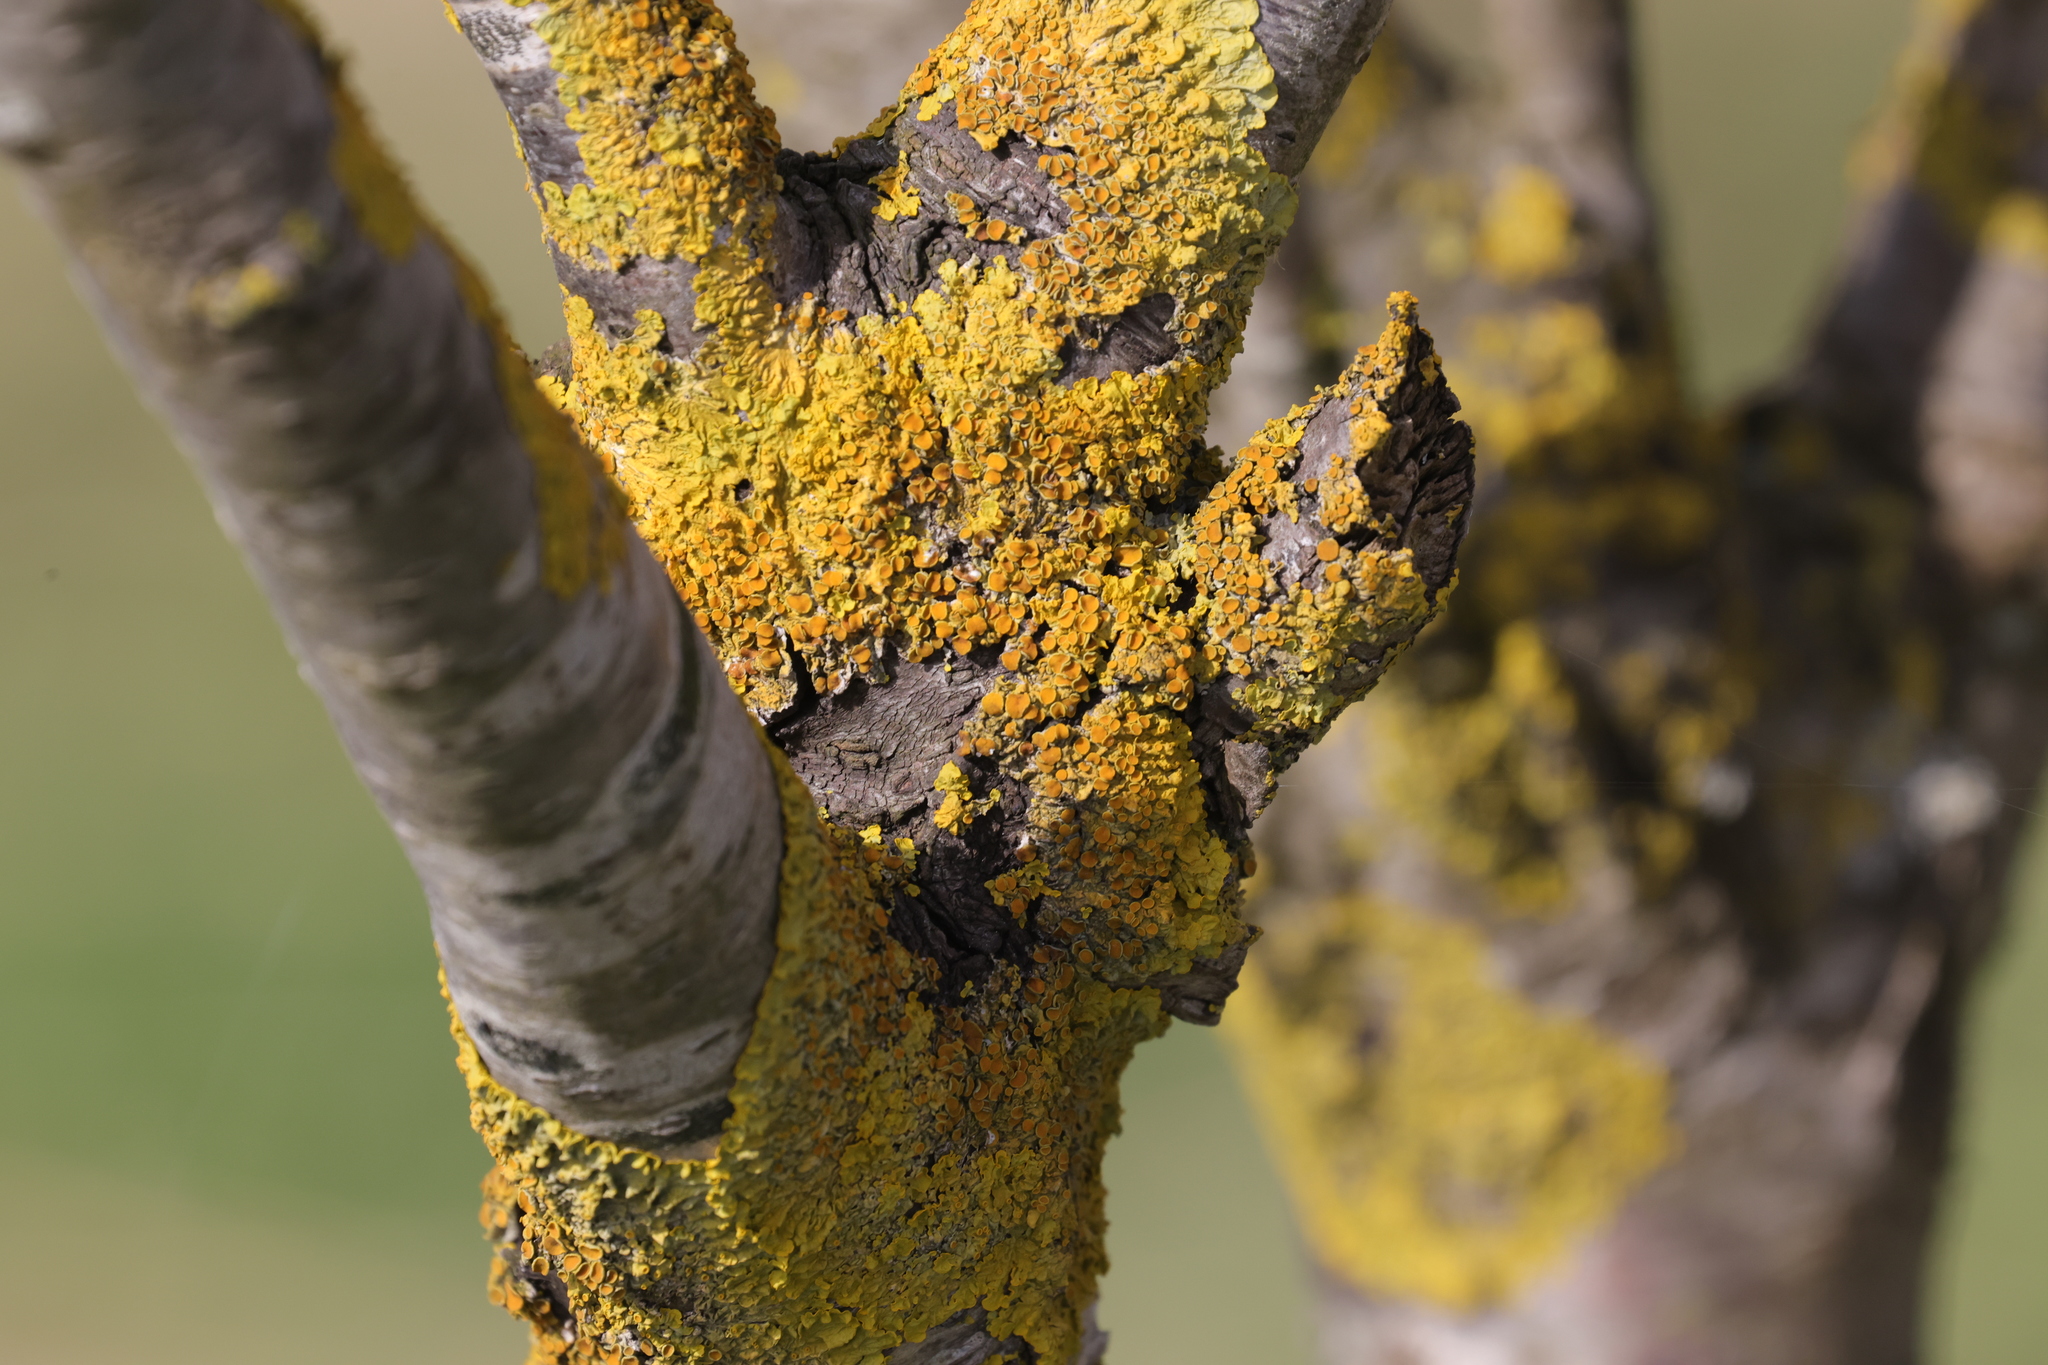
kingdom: Fungi
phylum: Ascomycota
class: Lecanoromycetes
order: Teloschistales
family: Teloschistaceae
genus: Xanthoria
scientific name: Xanthoria parietina
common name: Common orange lichen
